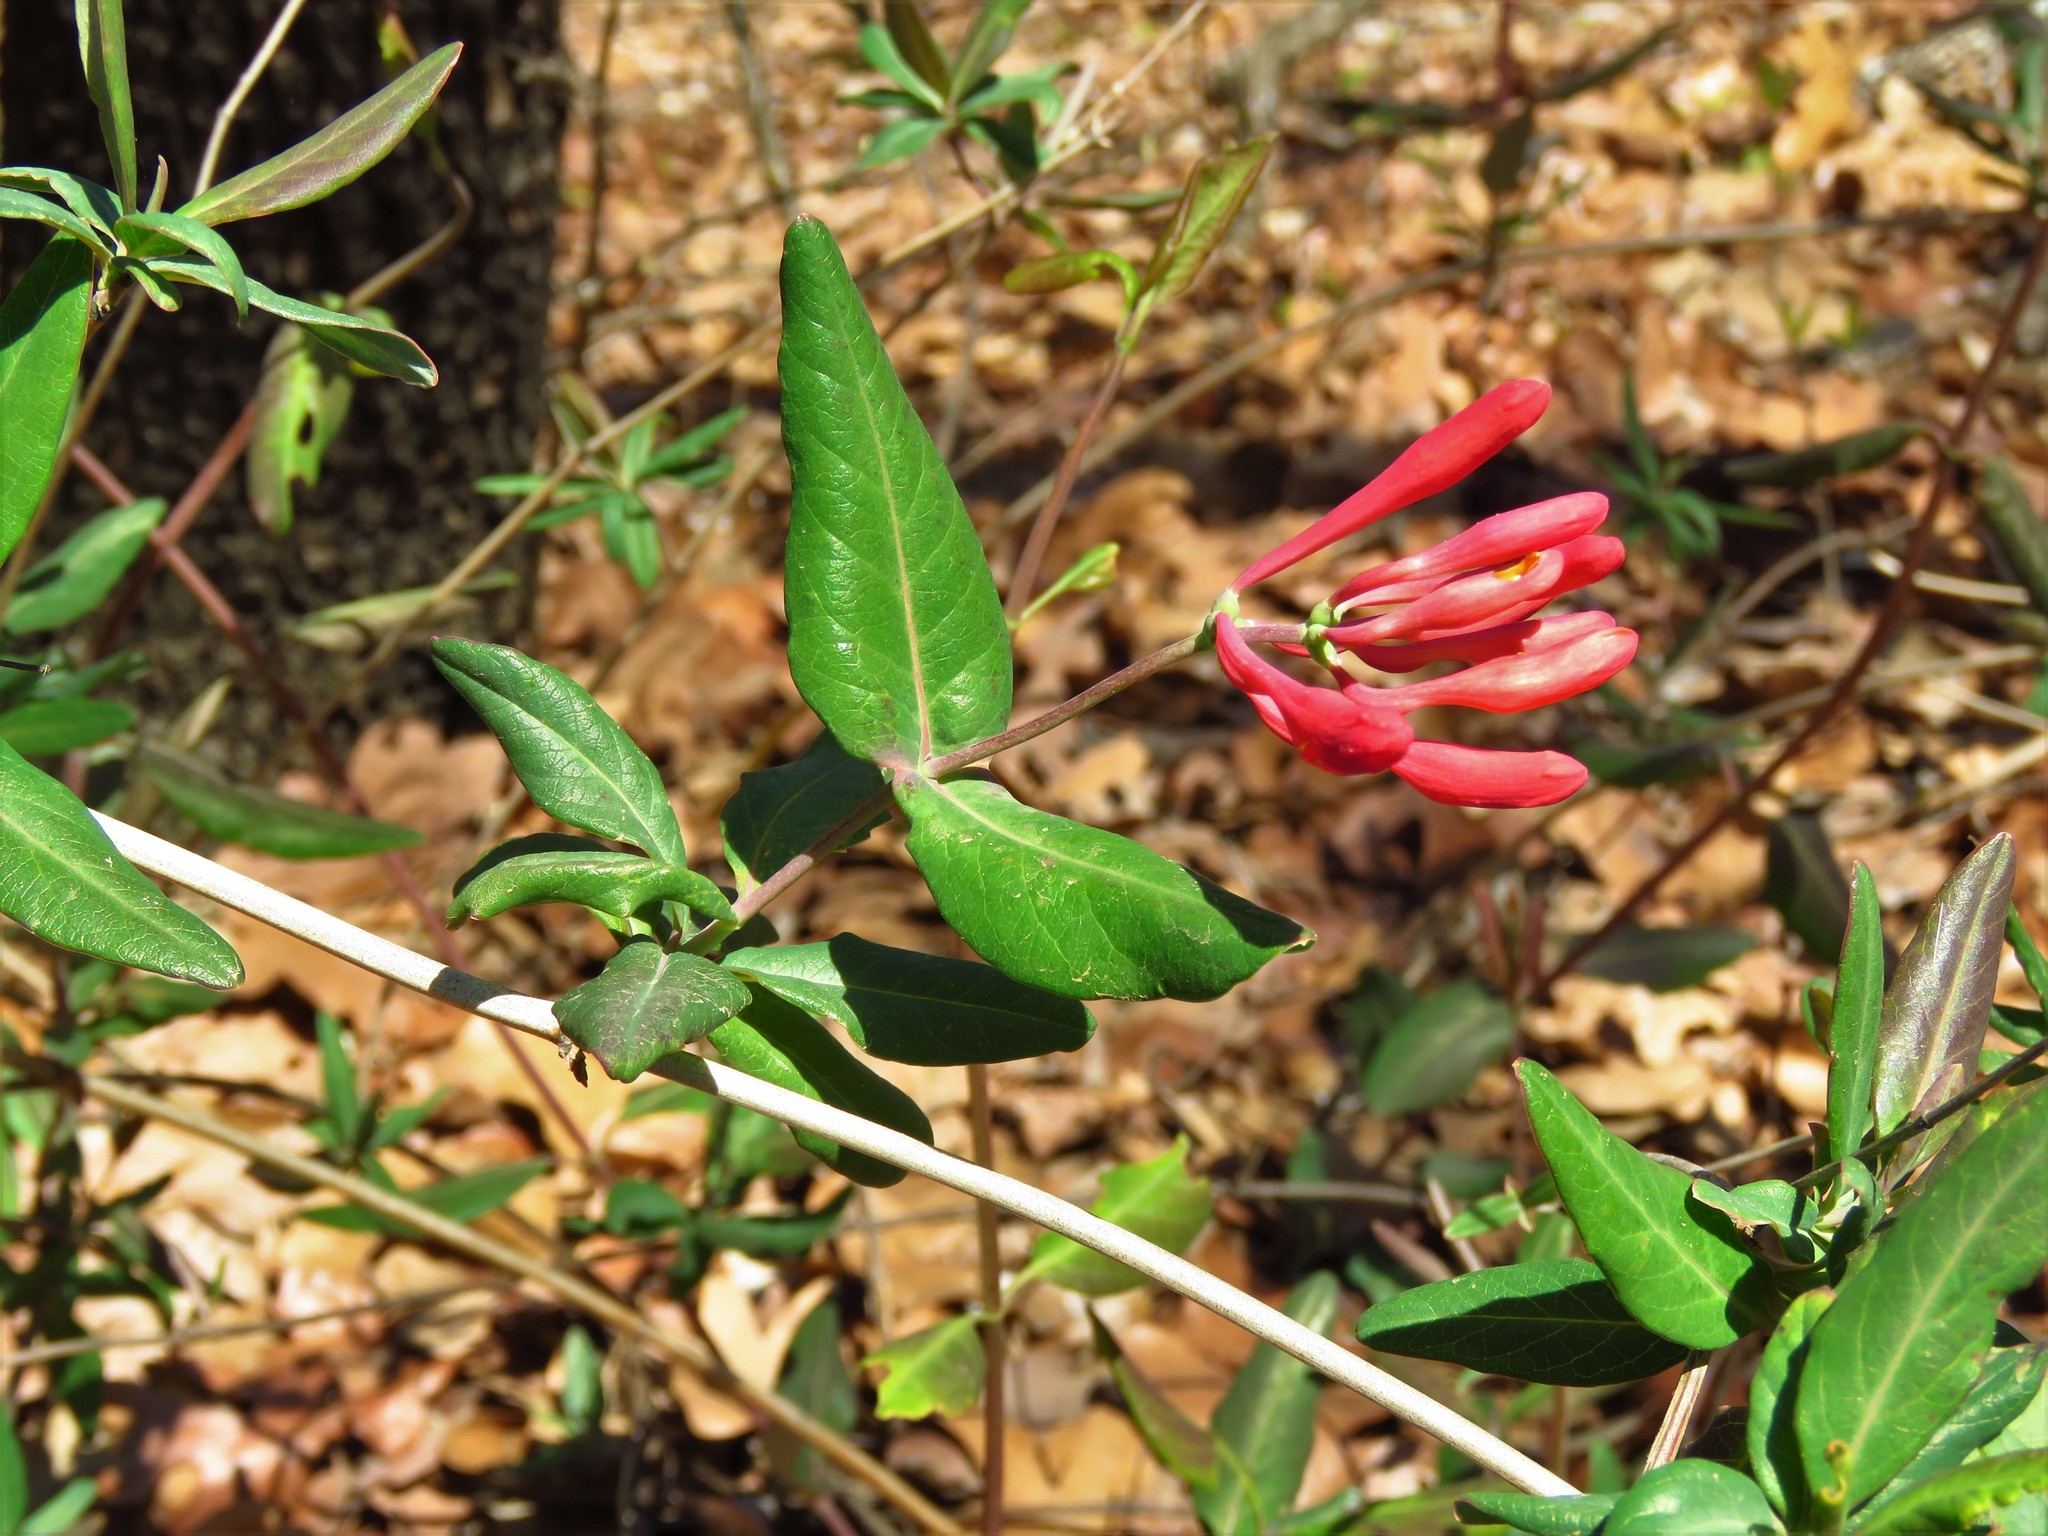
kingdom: Plantae
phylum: Tracheophyta
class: Magnoliopsida
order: Dipsacales
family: Caprifoliaceae
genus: Lonicera
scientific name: Lonicera sempervirens
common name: Coral honeysuckle
